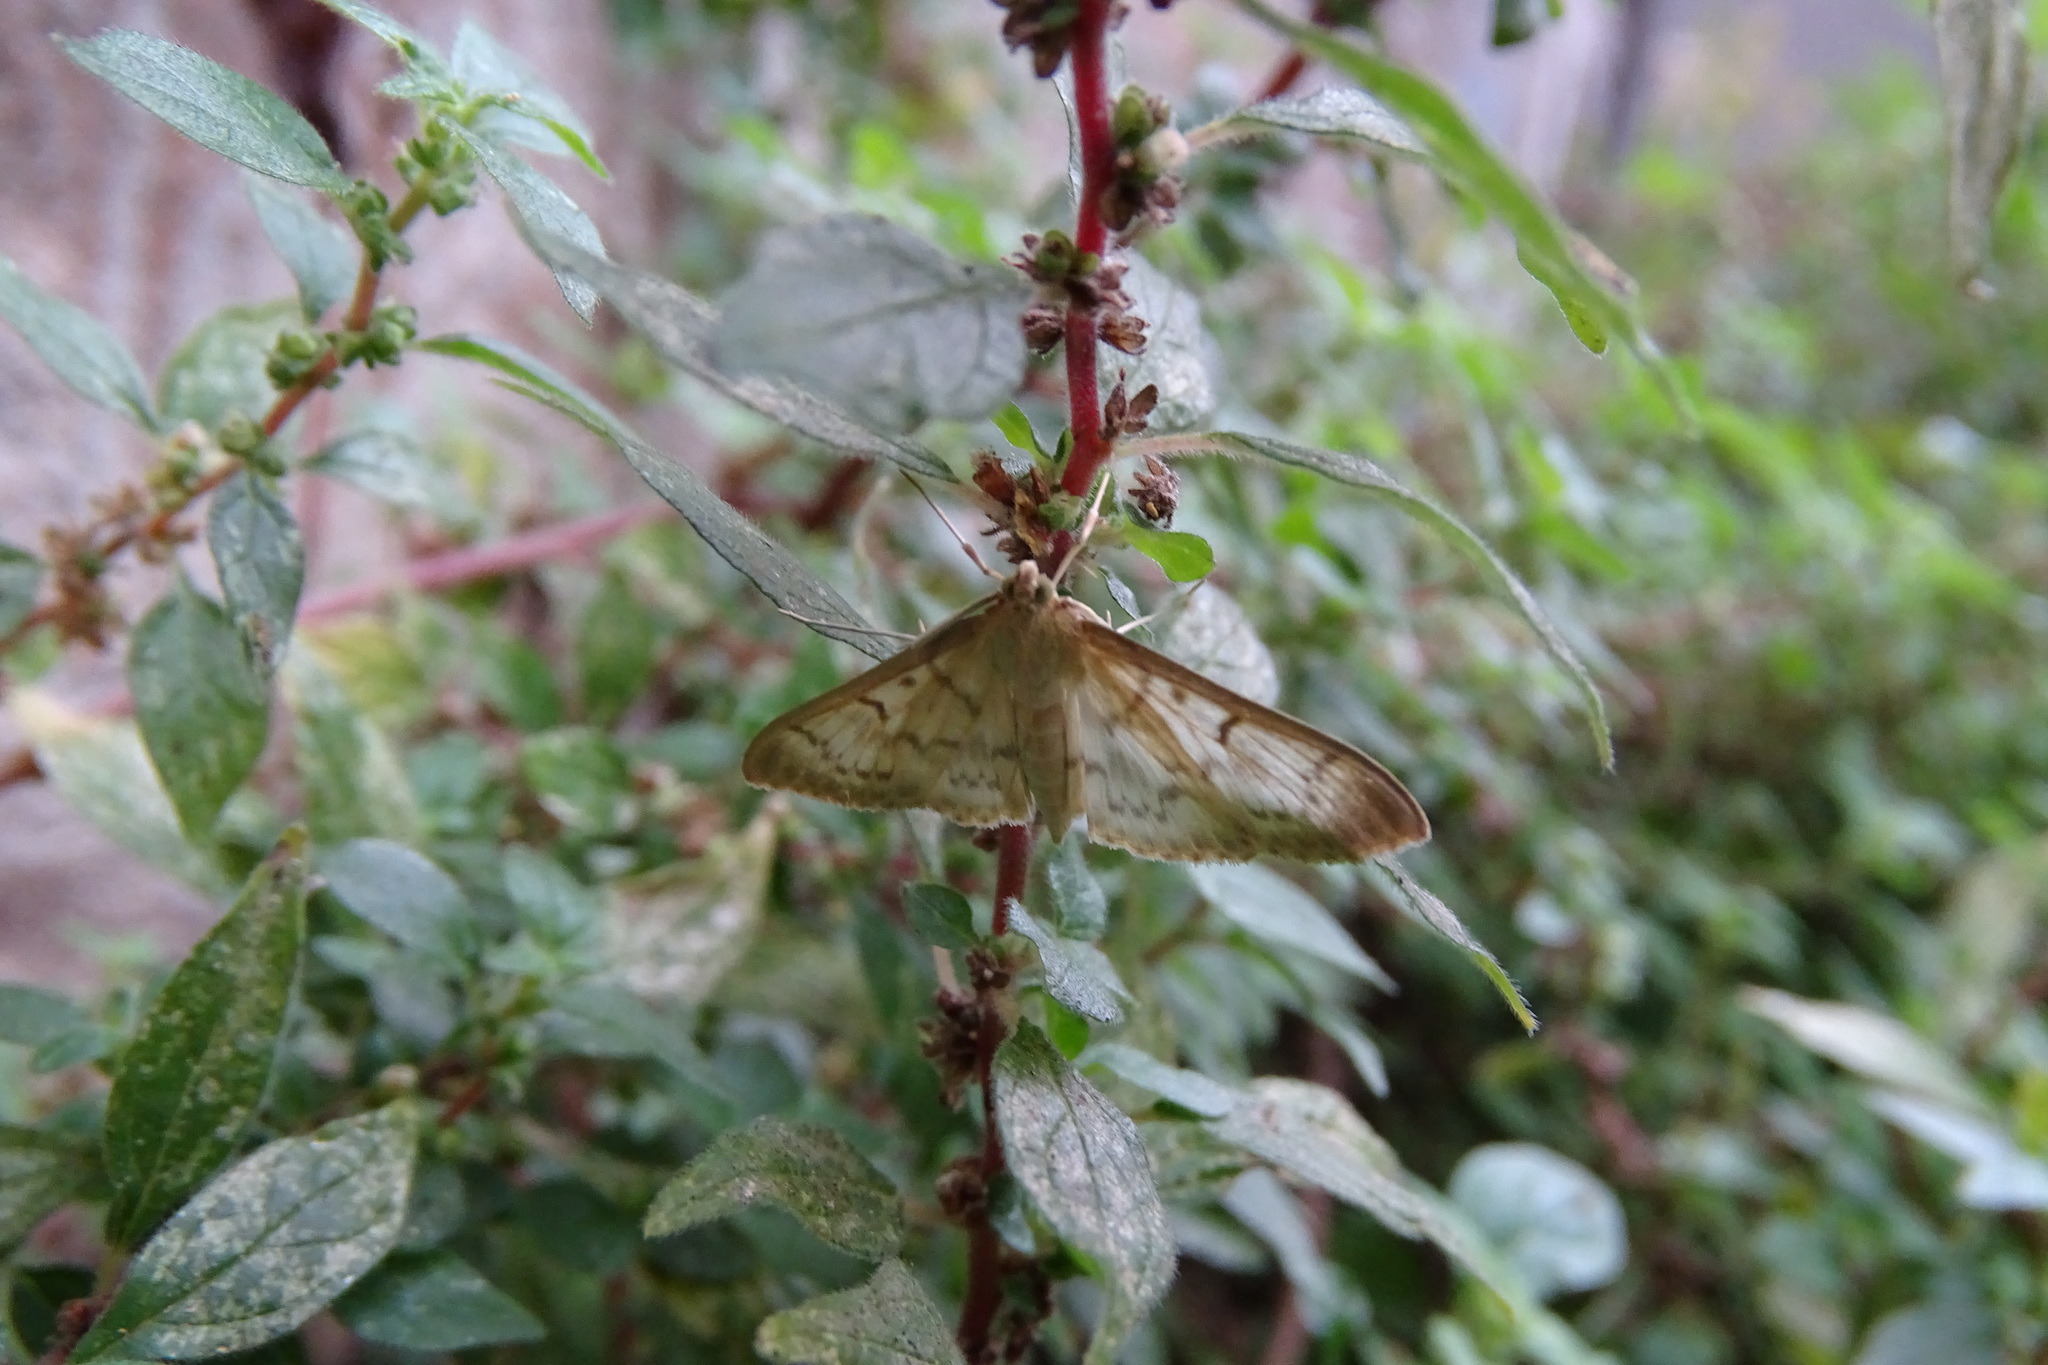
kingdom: Animalia
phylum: Arthropoda
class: Insecta
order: Lepidoptera
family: Crambidae
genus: Patania
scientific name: Patania ruralis
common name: Mother of pearl
